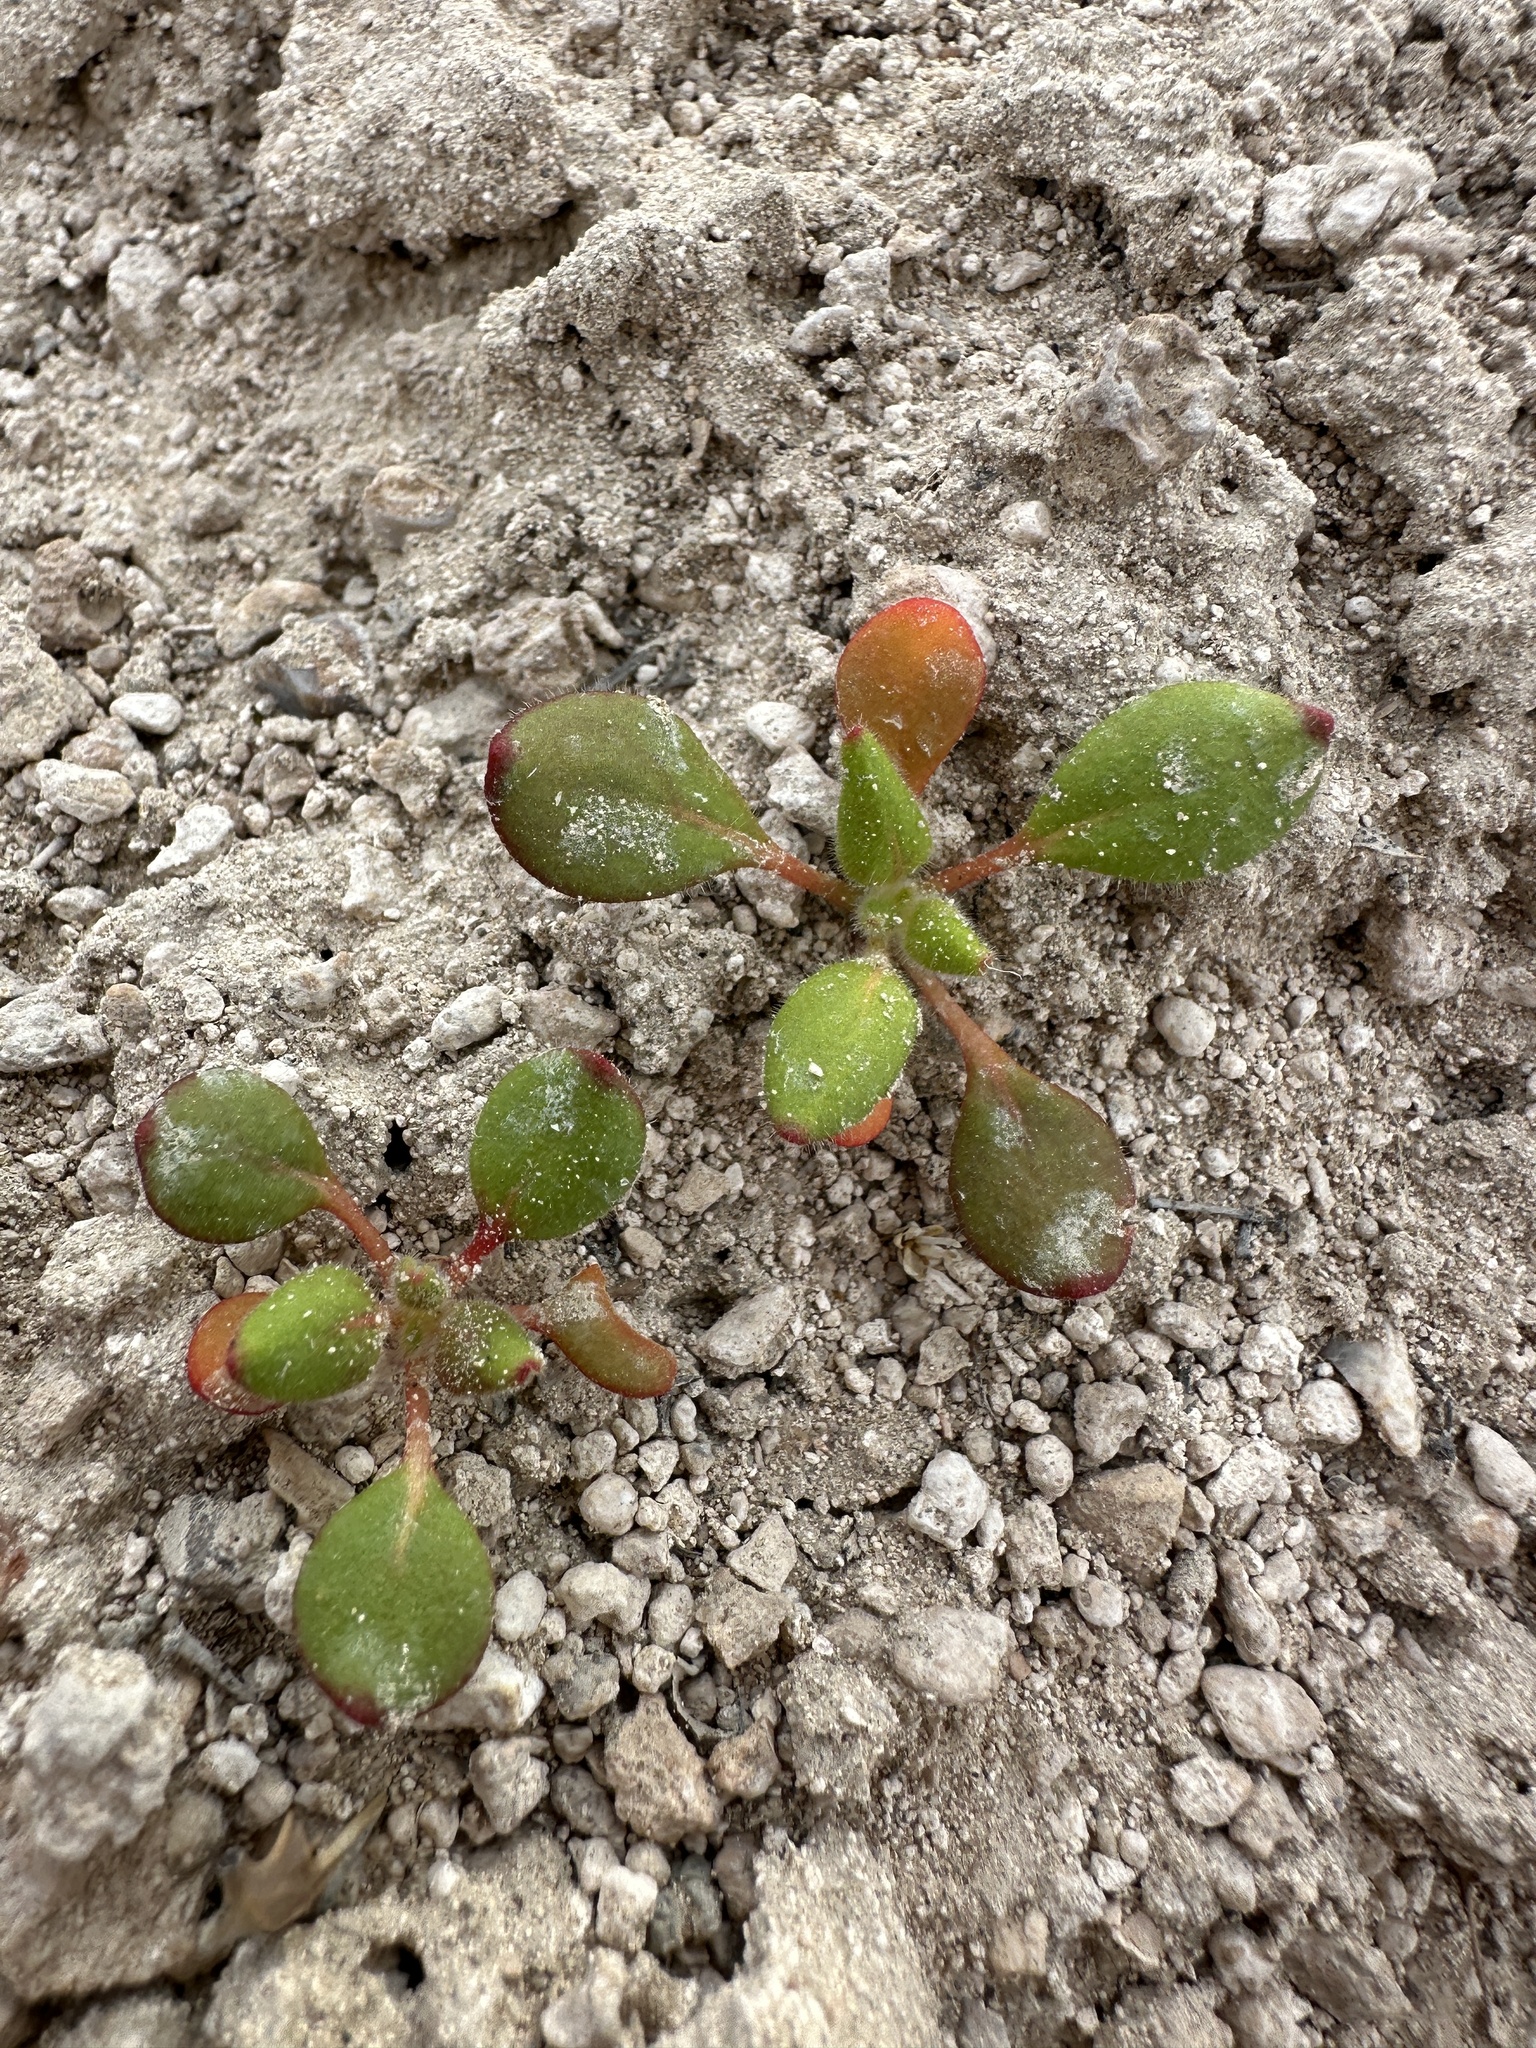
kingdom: Plantae
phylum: Tracheophyta
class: Magnoliopsida
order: Caryophyllales
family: Polygonaceae
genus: Eriogonum
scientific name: Eriogonum howellianum
